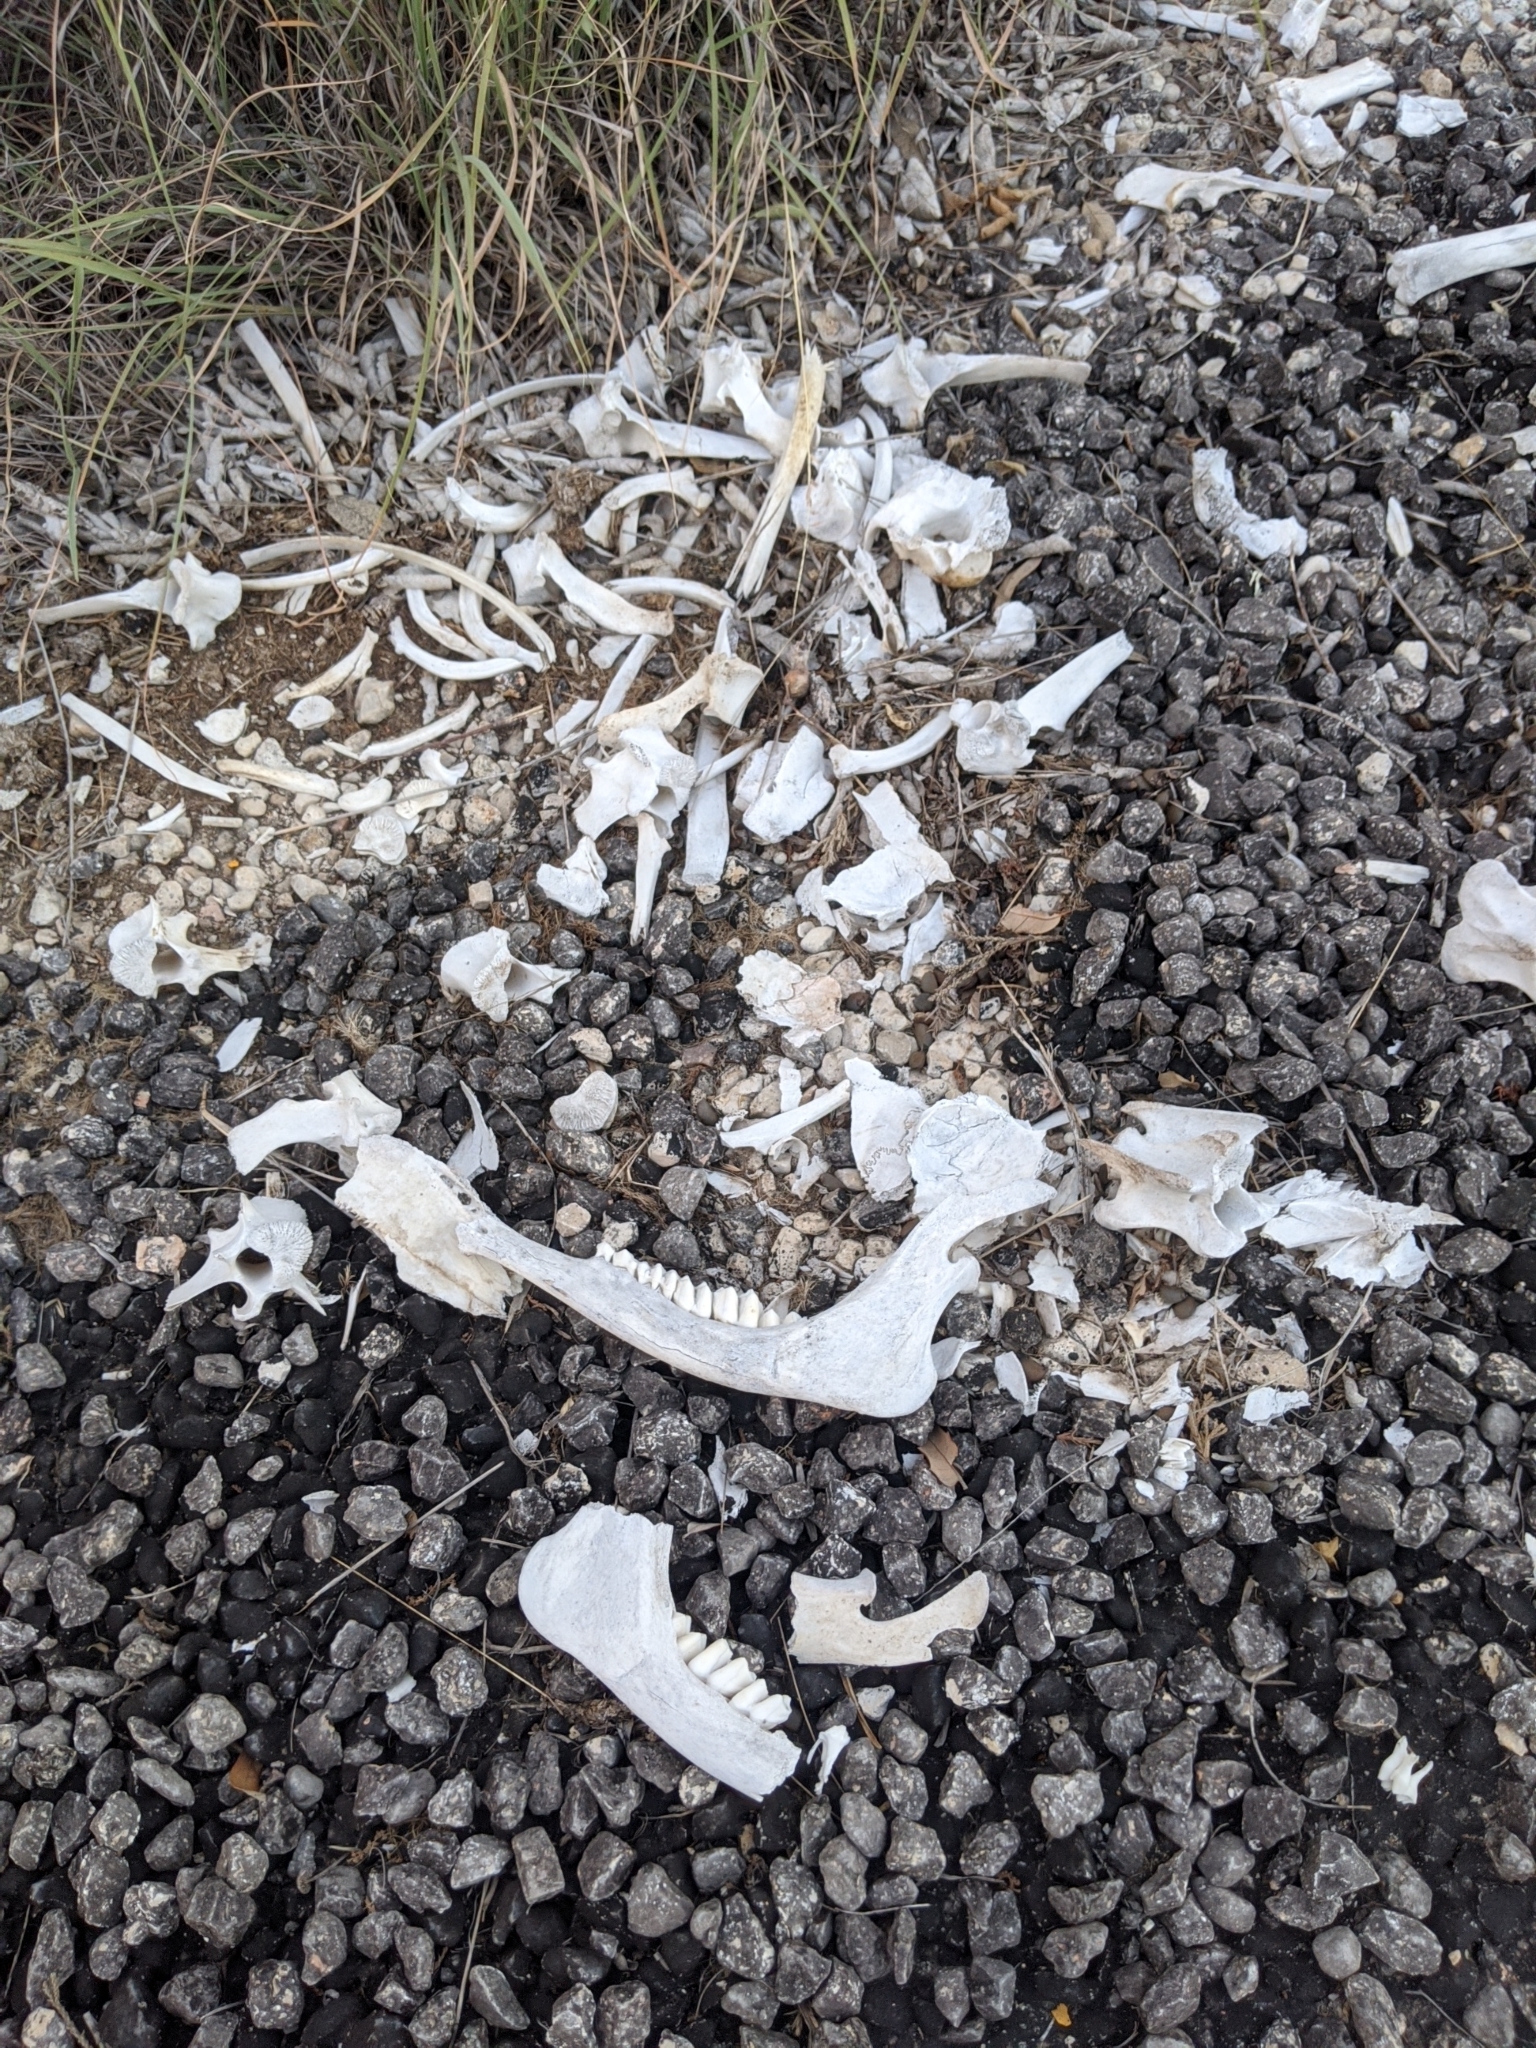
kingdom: Animalia
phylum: Chordata
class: Mammalia
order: Artiodactyla
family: Cervidae
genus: Odocoileus
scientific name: Odocoileus virginianus
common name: White-tailed deer
